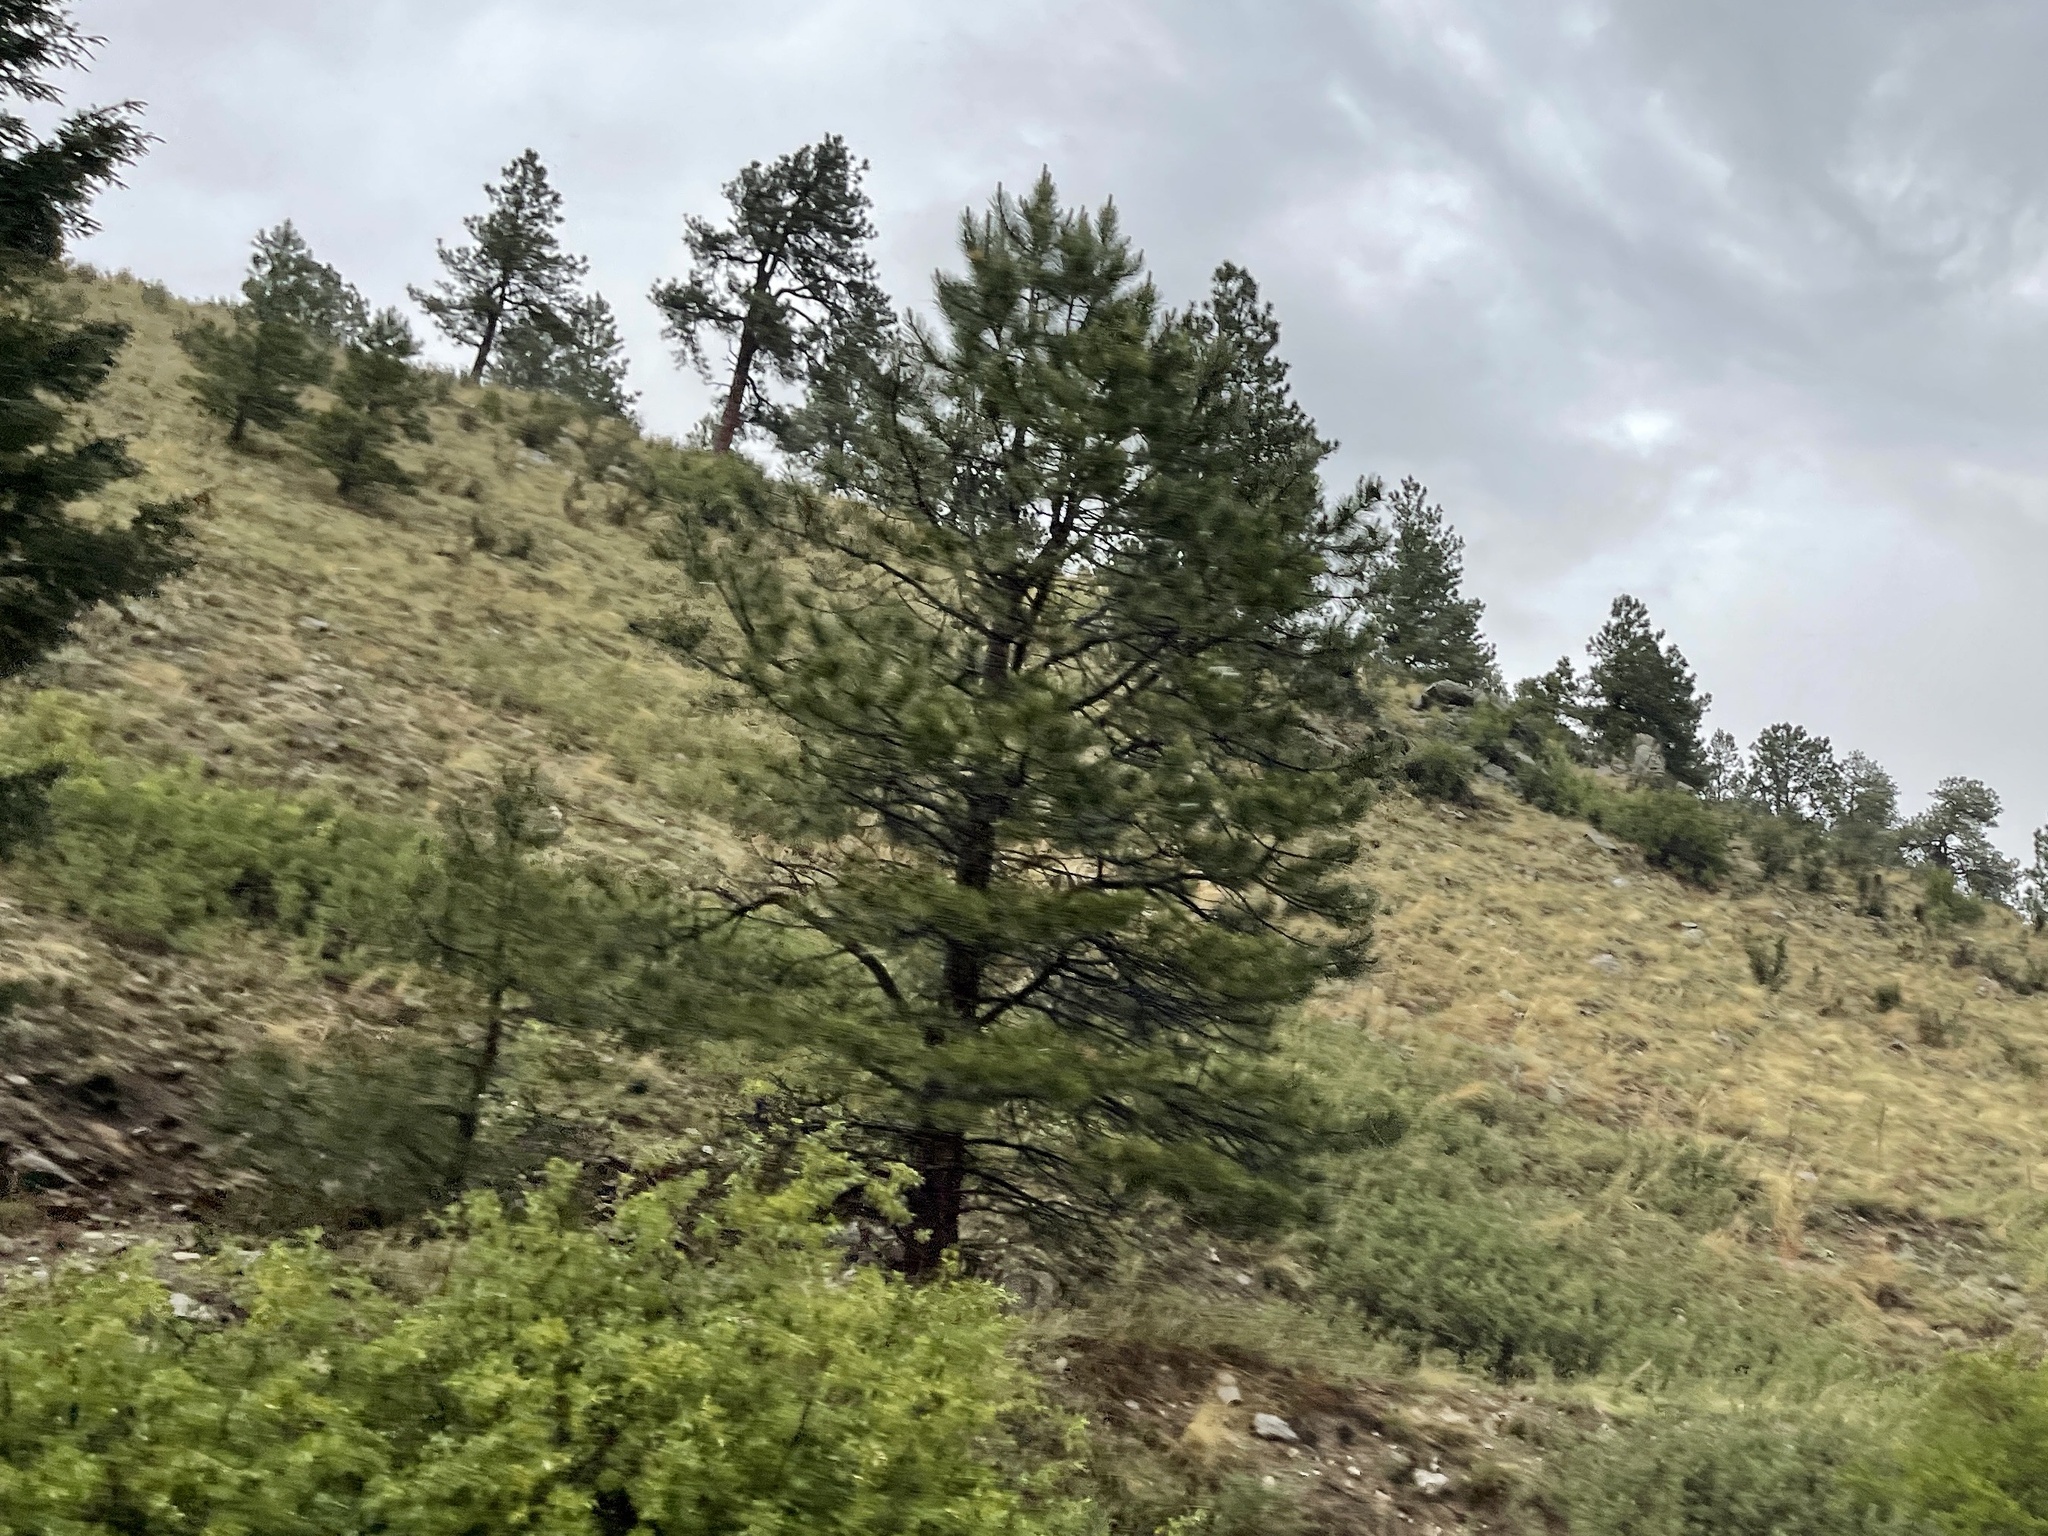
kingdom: Plantae
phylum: Tracheophyta
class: Pinopsida
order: Pinales
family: Pinaceae
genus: Pinus
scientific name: Pinus ponderosa
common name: Western yellow-pine
